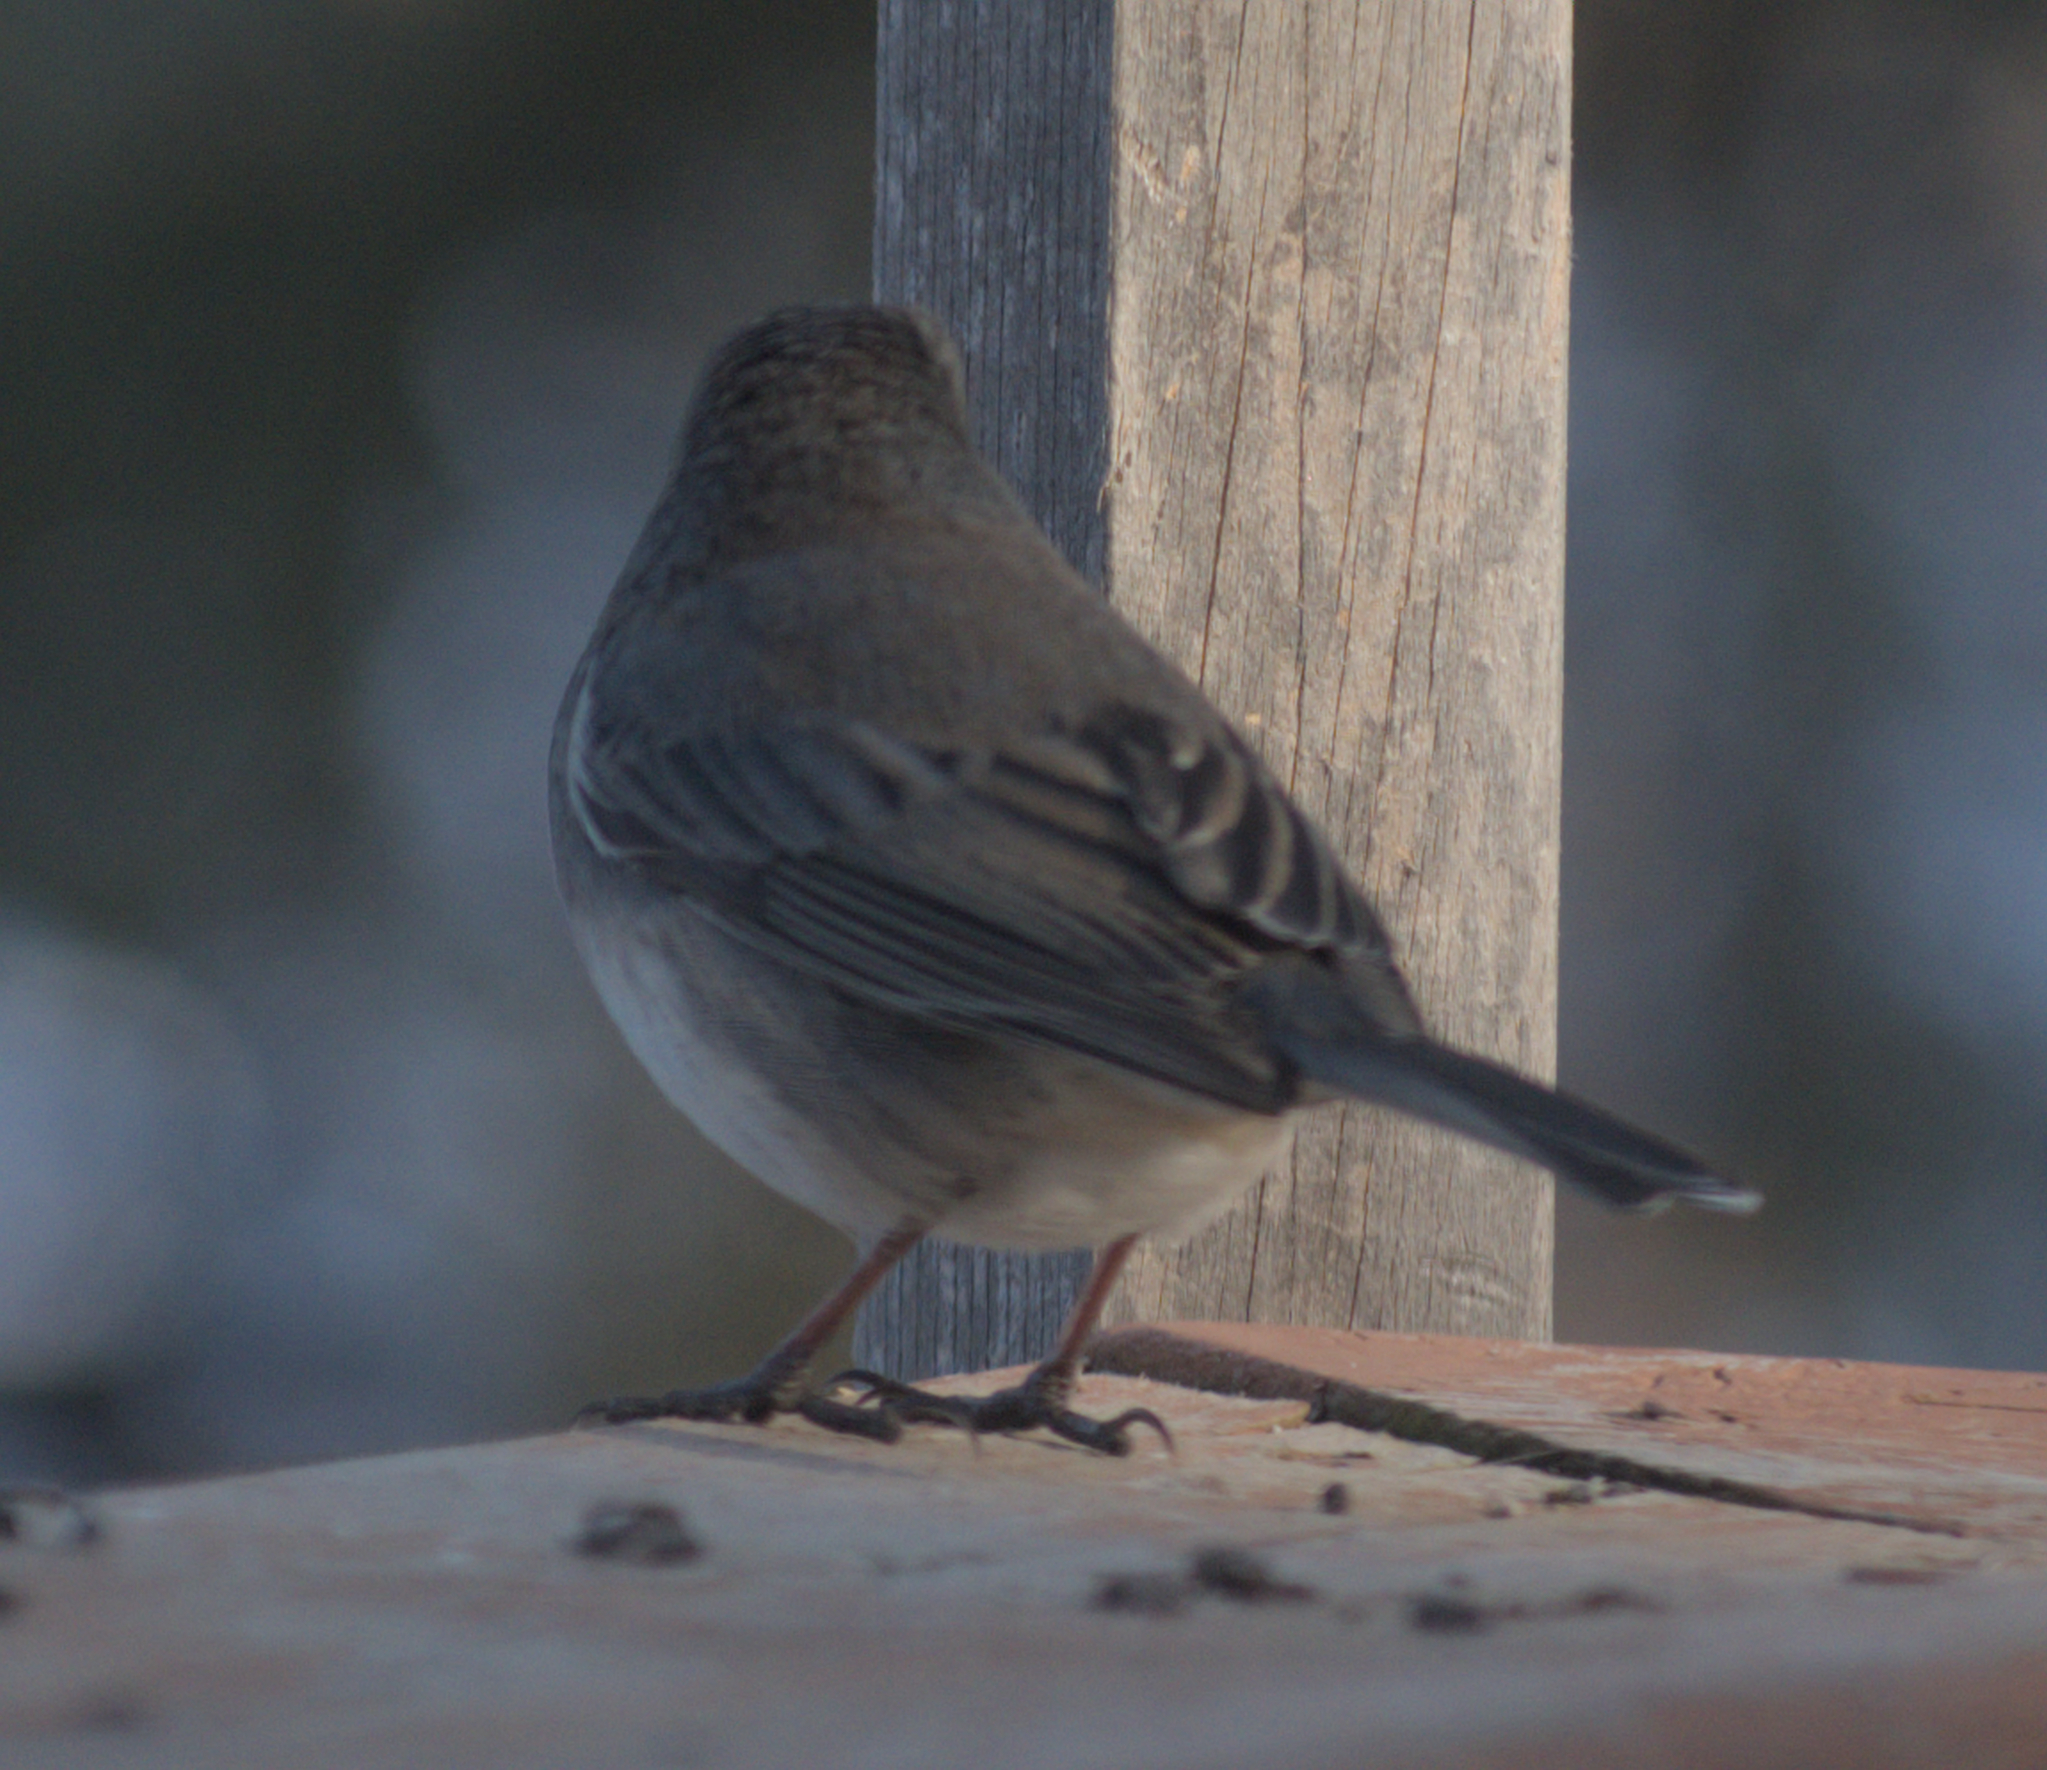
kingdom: Animalia
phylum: Chordata
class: Aves
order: Passeriformes
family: Passerellidae
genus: Junco
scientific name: Junco hyemalis
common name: Dark-eyed junco
